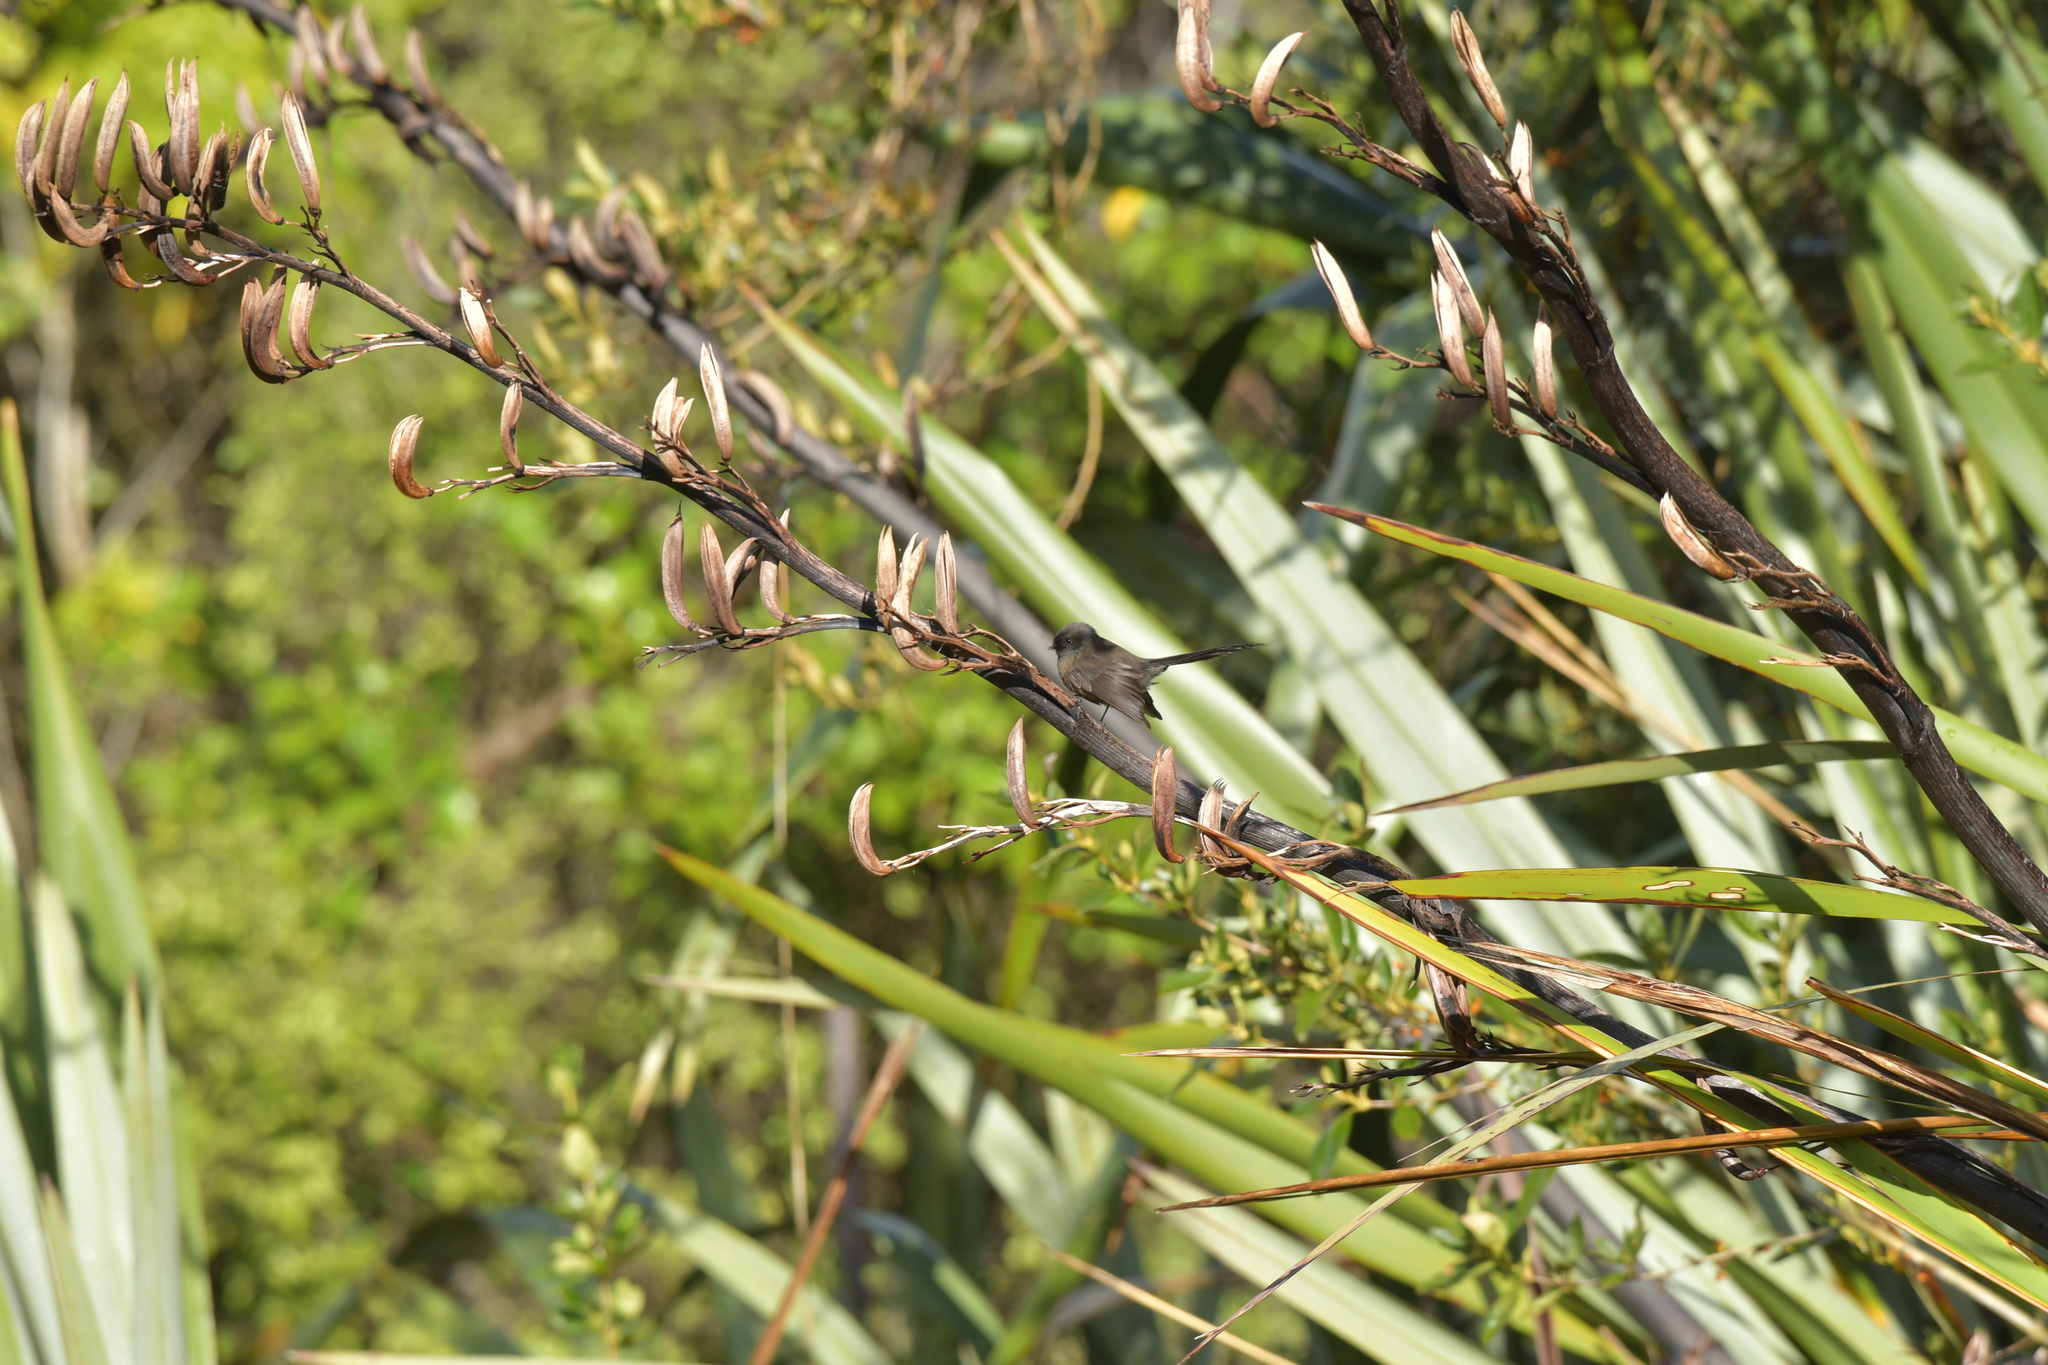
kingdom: Animalia
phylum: Chordata
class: Aves
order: Passeriformes
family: Rhipiduridae
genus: Rhipidura
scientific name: Rhipidura fuliginosa
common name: New zealand fantail
